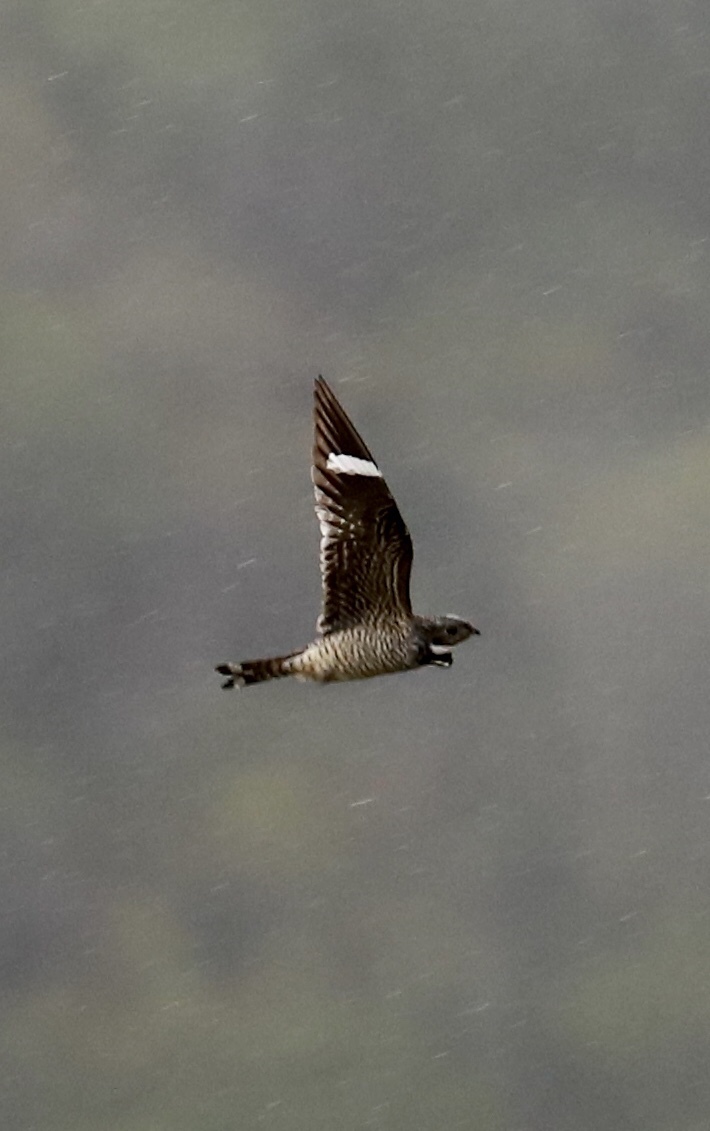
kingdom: Animalia
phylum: Chordata
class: Aves
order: Caprimulgiformes
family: Caprimulgidae
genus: Chordeiles
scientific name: Chordeiles minor
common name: Common nighthawk
